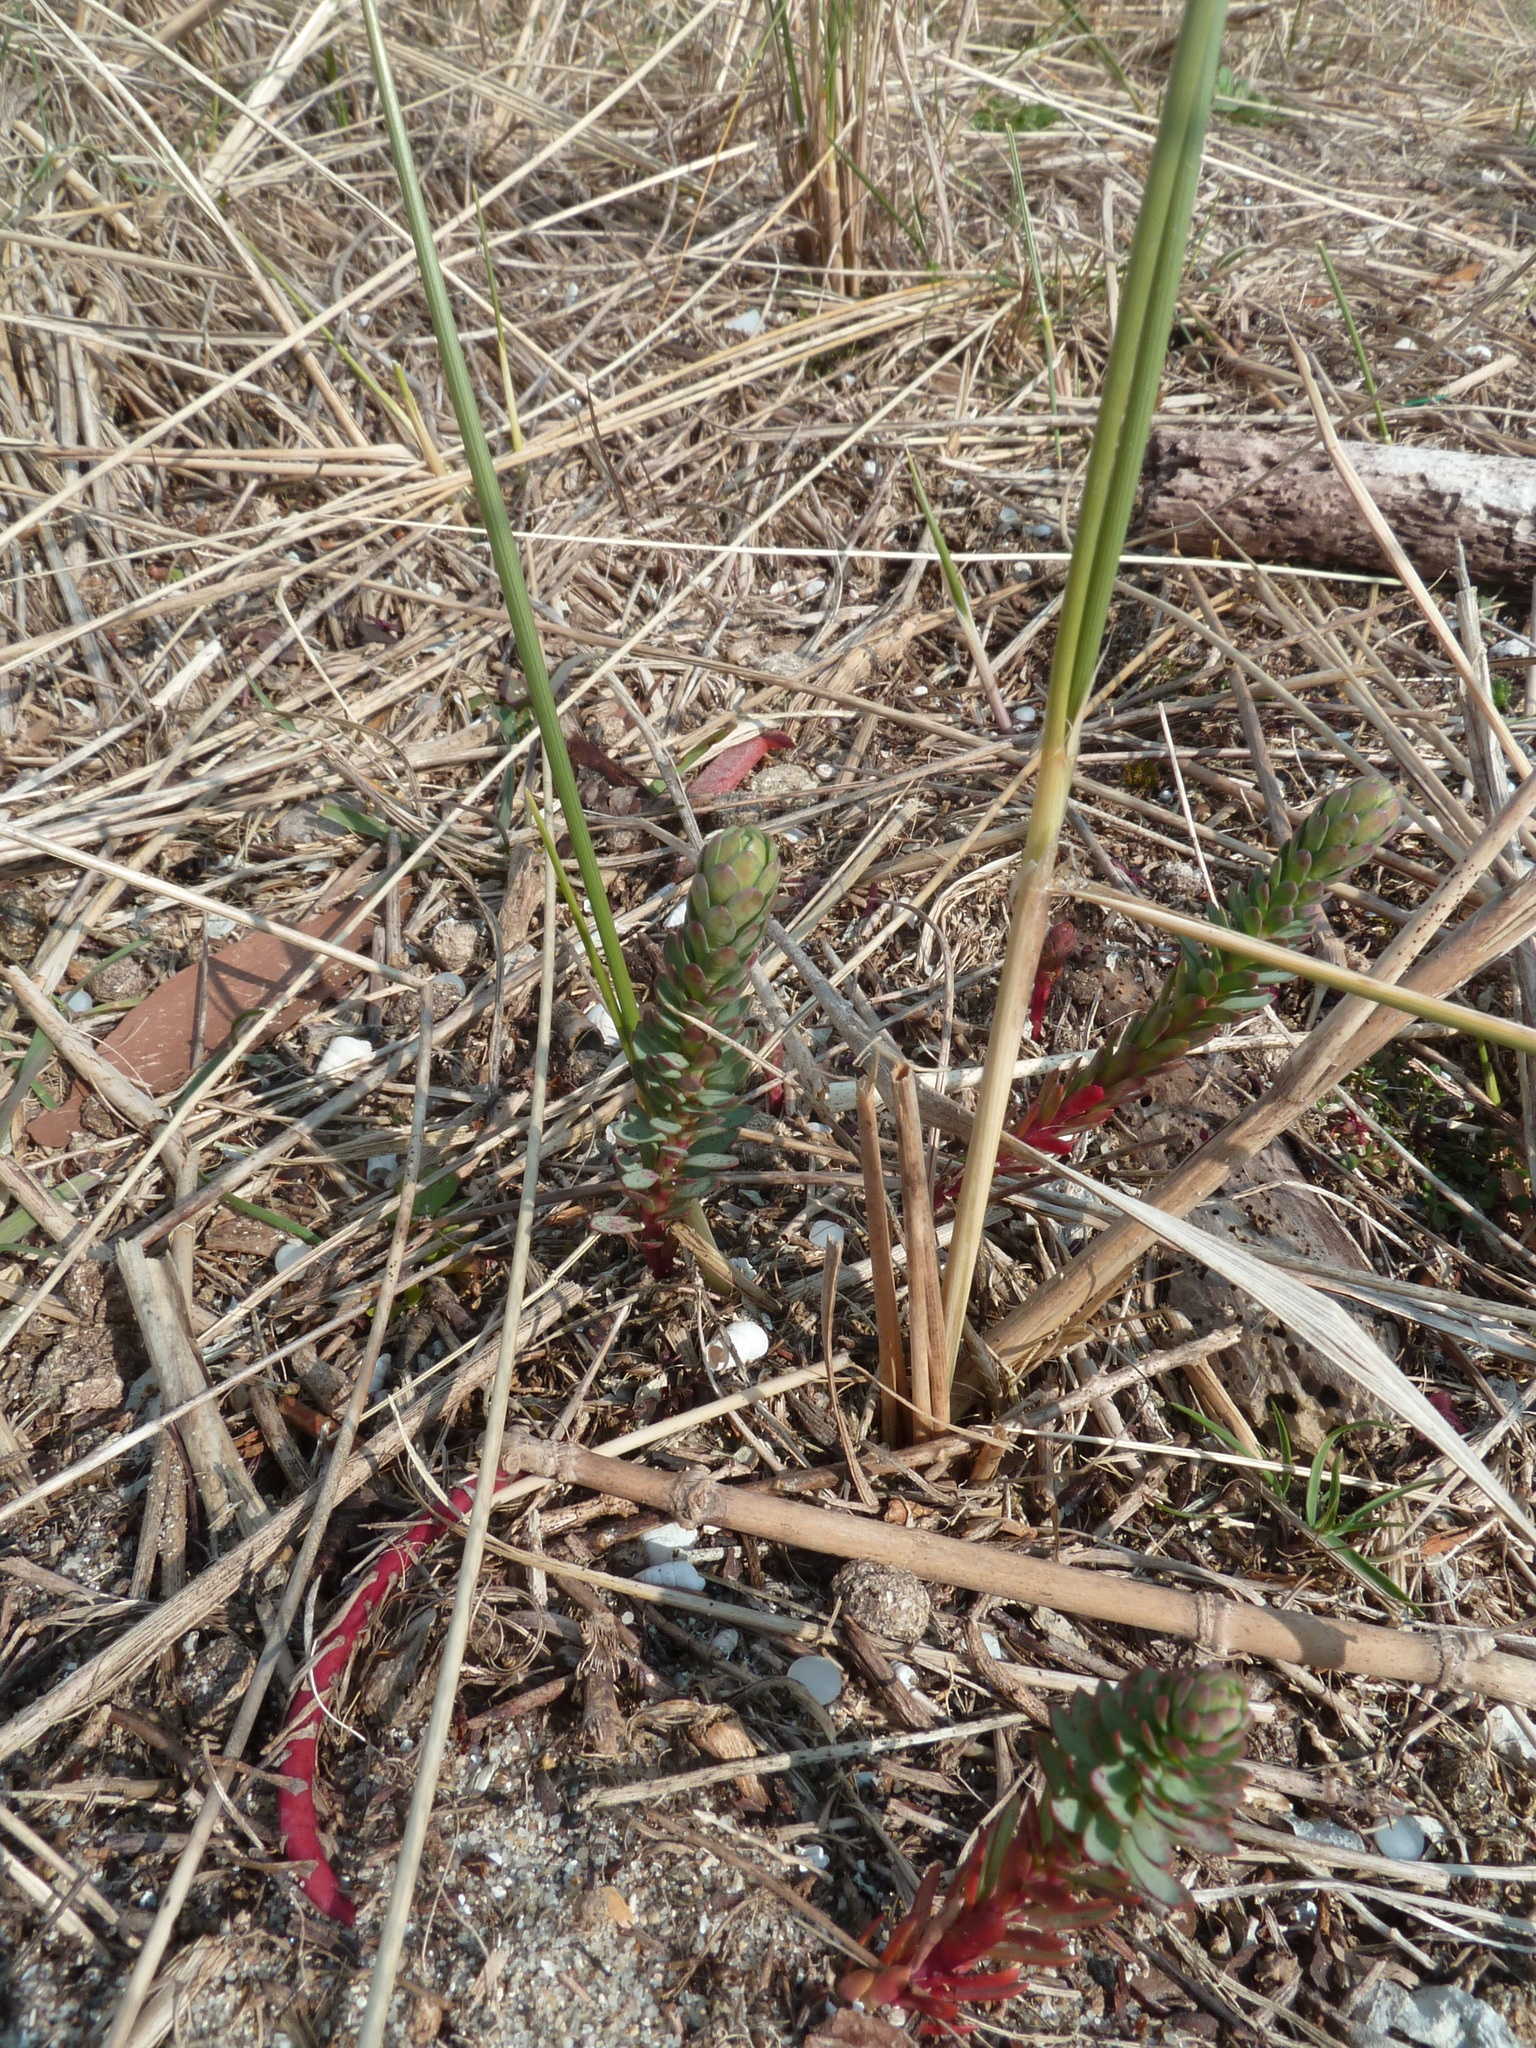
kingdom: Plantae
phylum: Tracheophyta
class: Magnoliopsida
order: Malpighiales
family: Euphorbiaceae
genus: Euphorbia
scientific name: Euphorbia paralias
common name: Sea spurge
